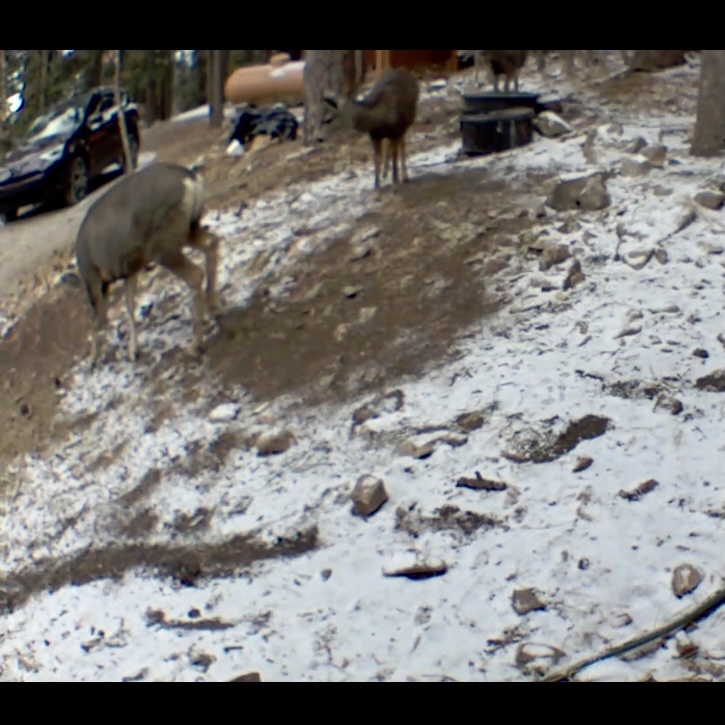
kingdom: Animalia
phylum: Chordata
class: Mammalia
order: Artiodactyla
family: Cervidae
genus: Odocoileus
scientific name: Odocoileus hemionus
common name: Mule deer
